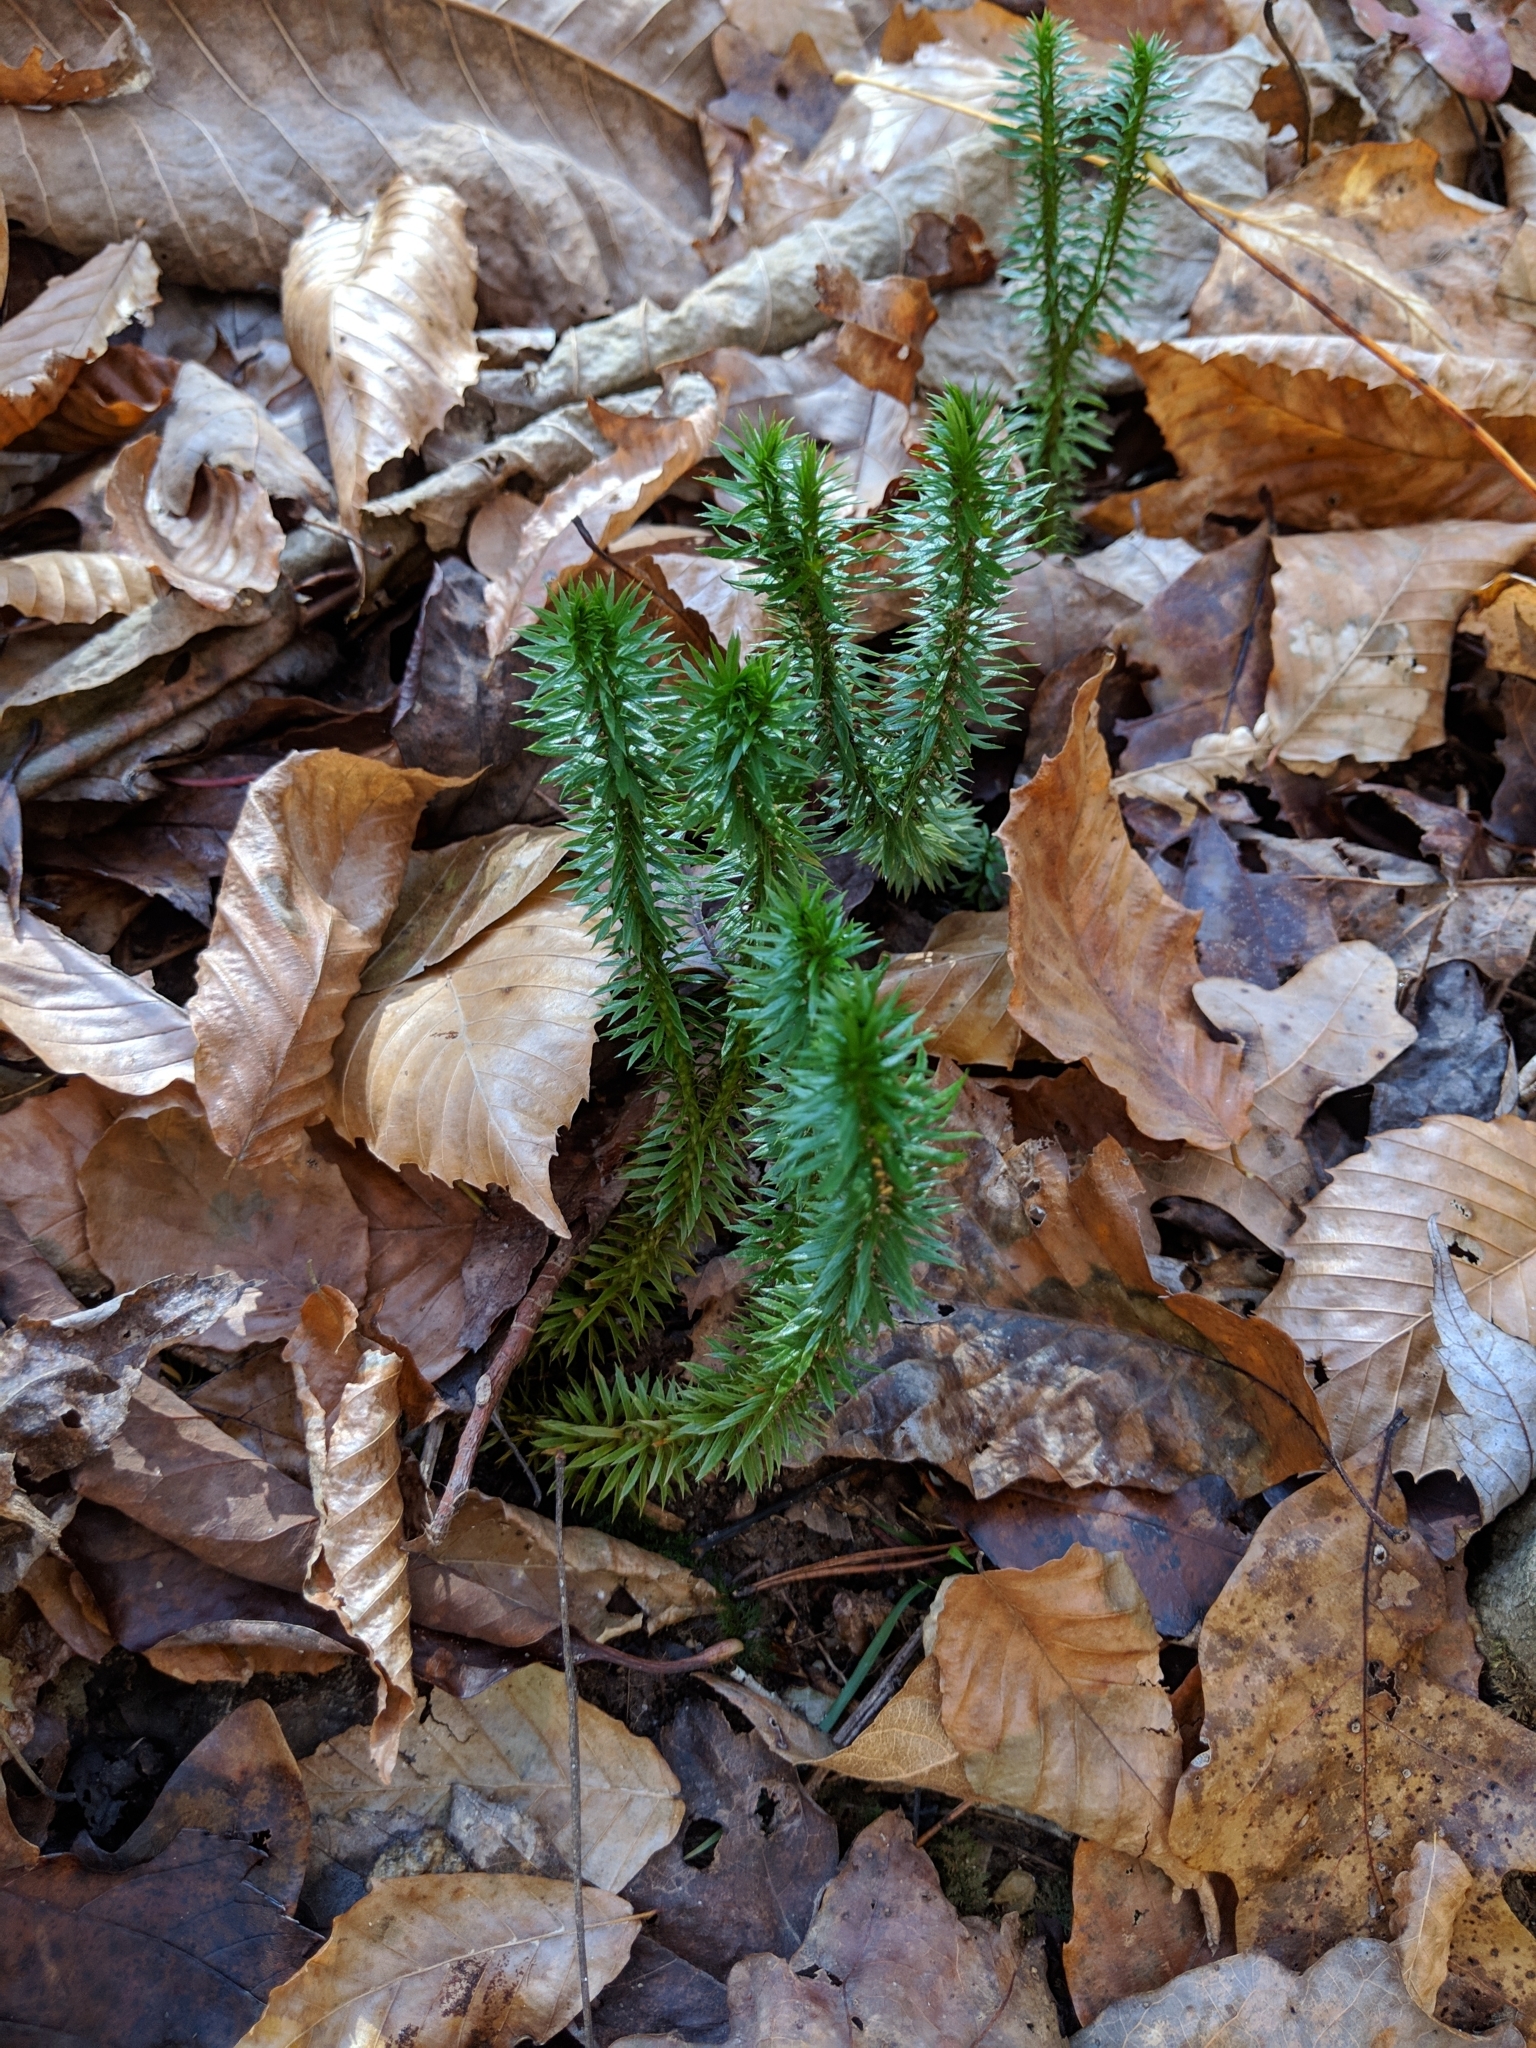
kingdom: Plantae
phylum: Tracheophyta
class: Lycopodiopsida
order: Lycopodiales
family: Lycopodiaceae
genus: Huperzia
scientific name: Huperzia lucidula
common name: Shining clubmoss
